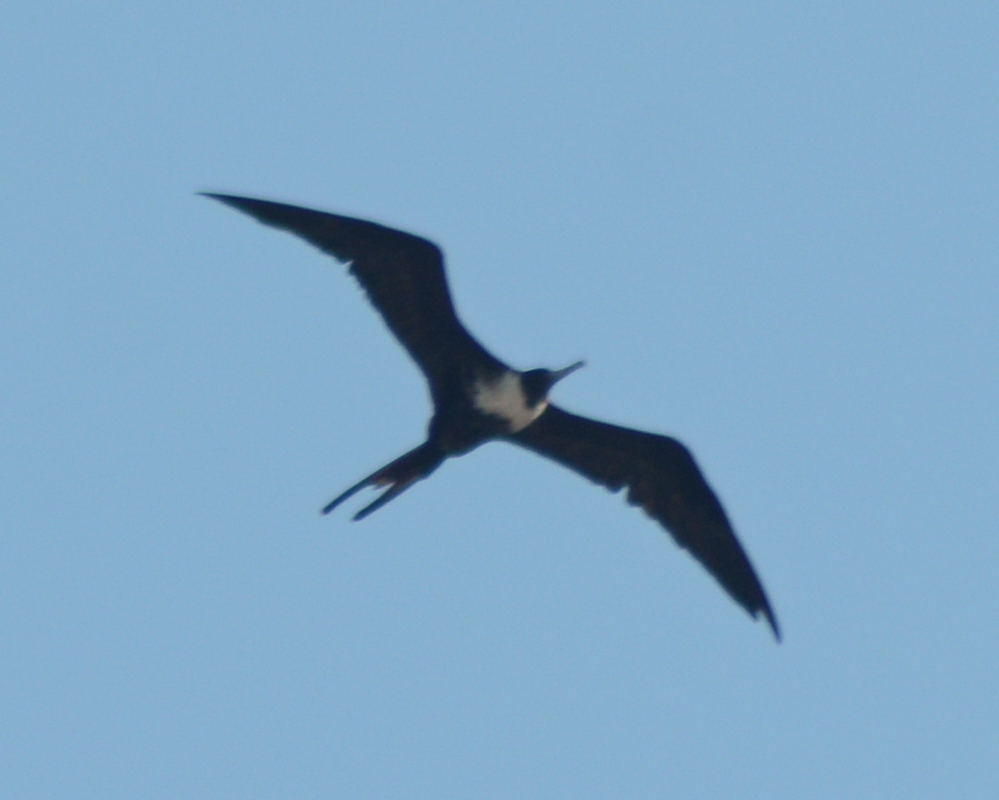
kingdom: Animalia
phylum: Chordata
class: Aves
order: Suliformes
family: Fregatidae
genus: Fregata
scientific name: Fregata magnificens
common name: Magnificent frigatebird
